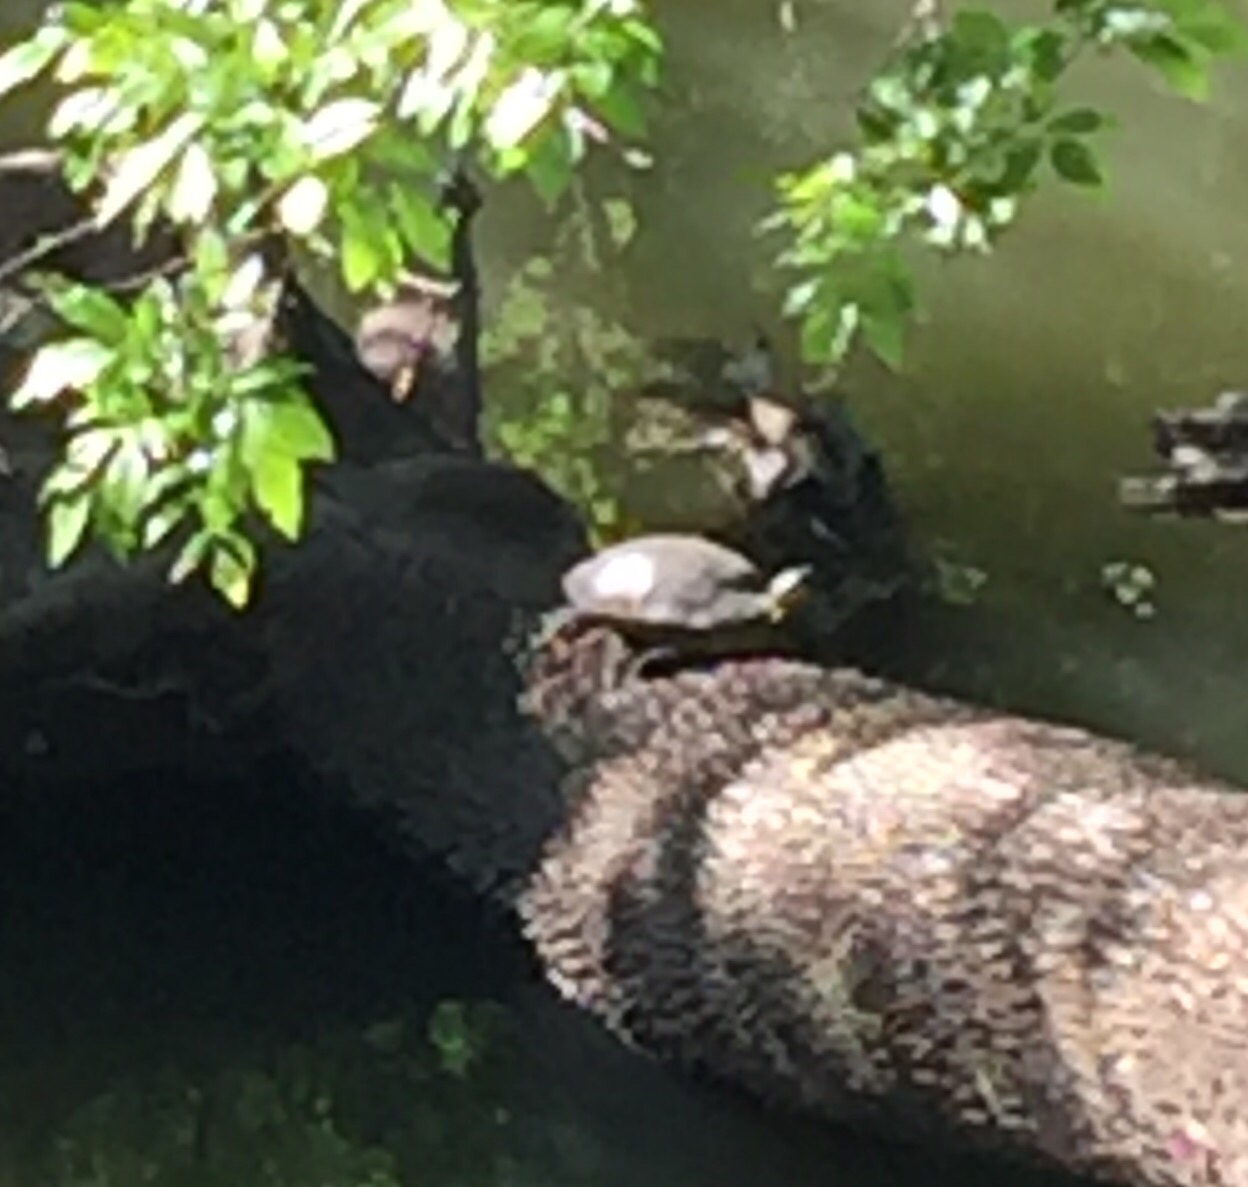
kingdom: Animalia
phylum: Chordata
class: Testudines
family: Emydidae
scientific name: Emydidae
